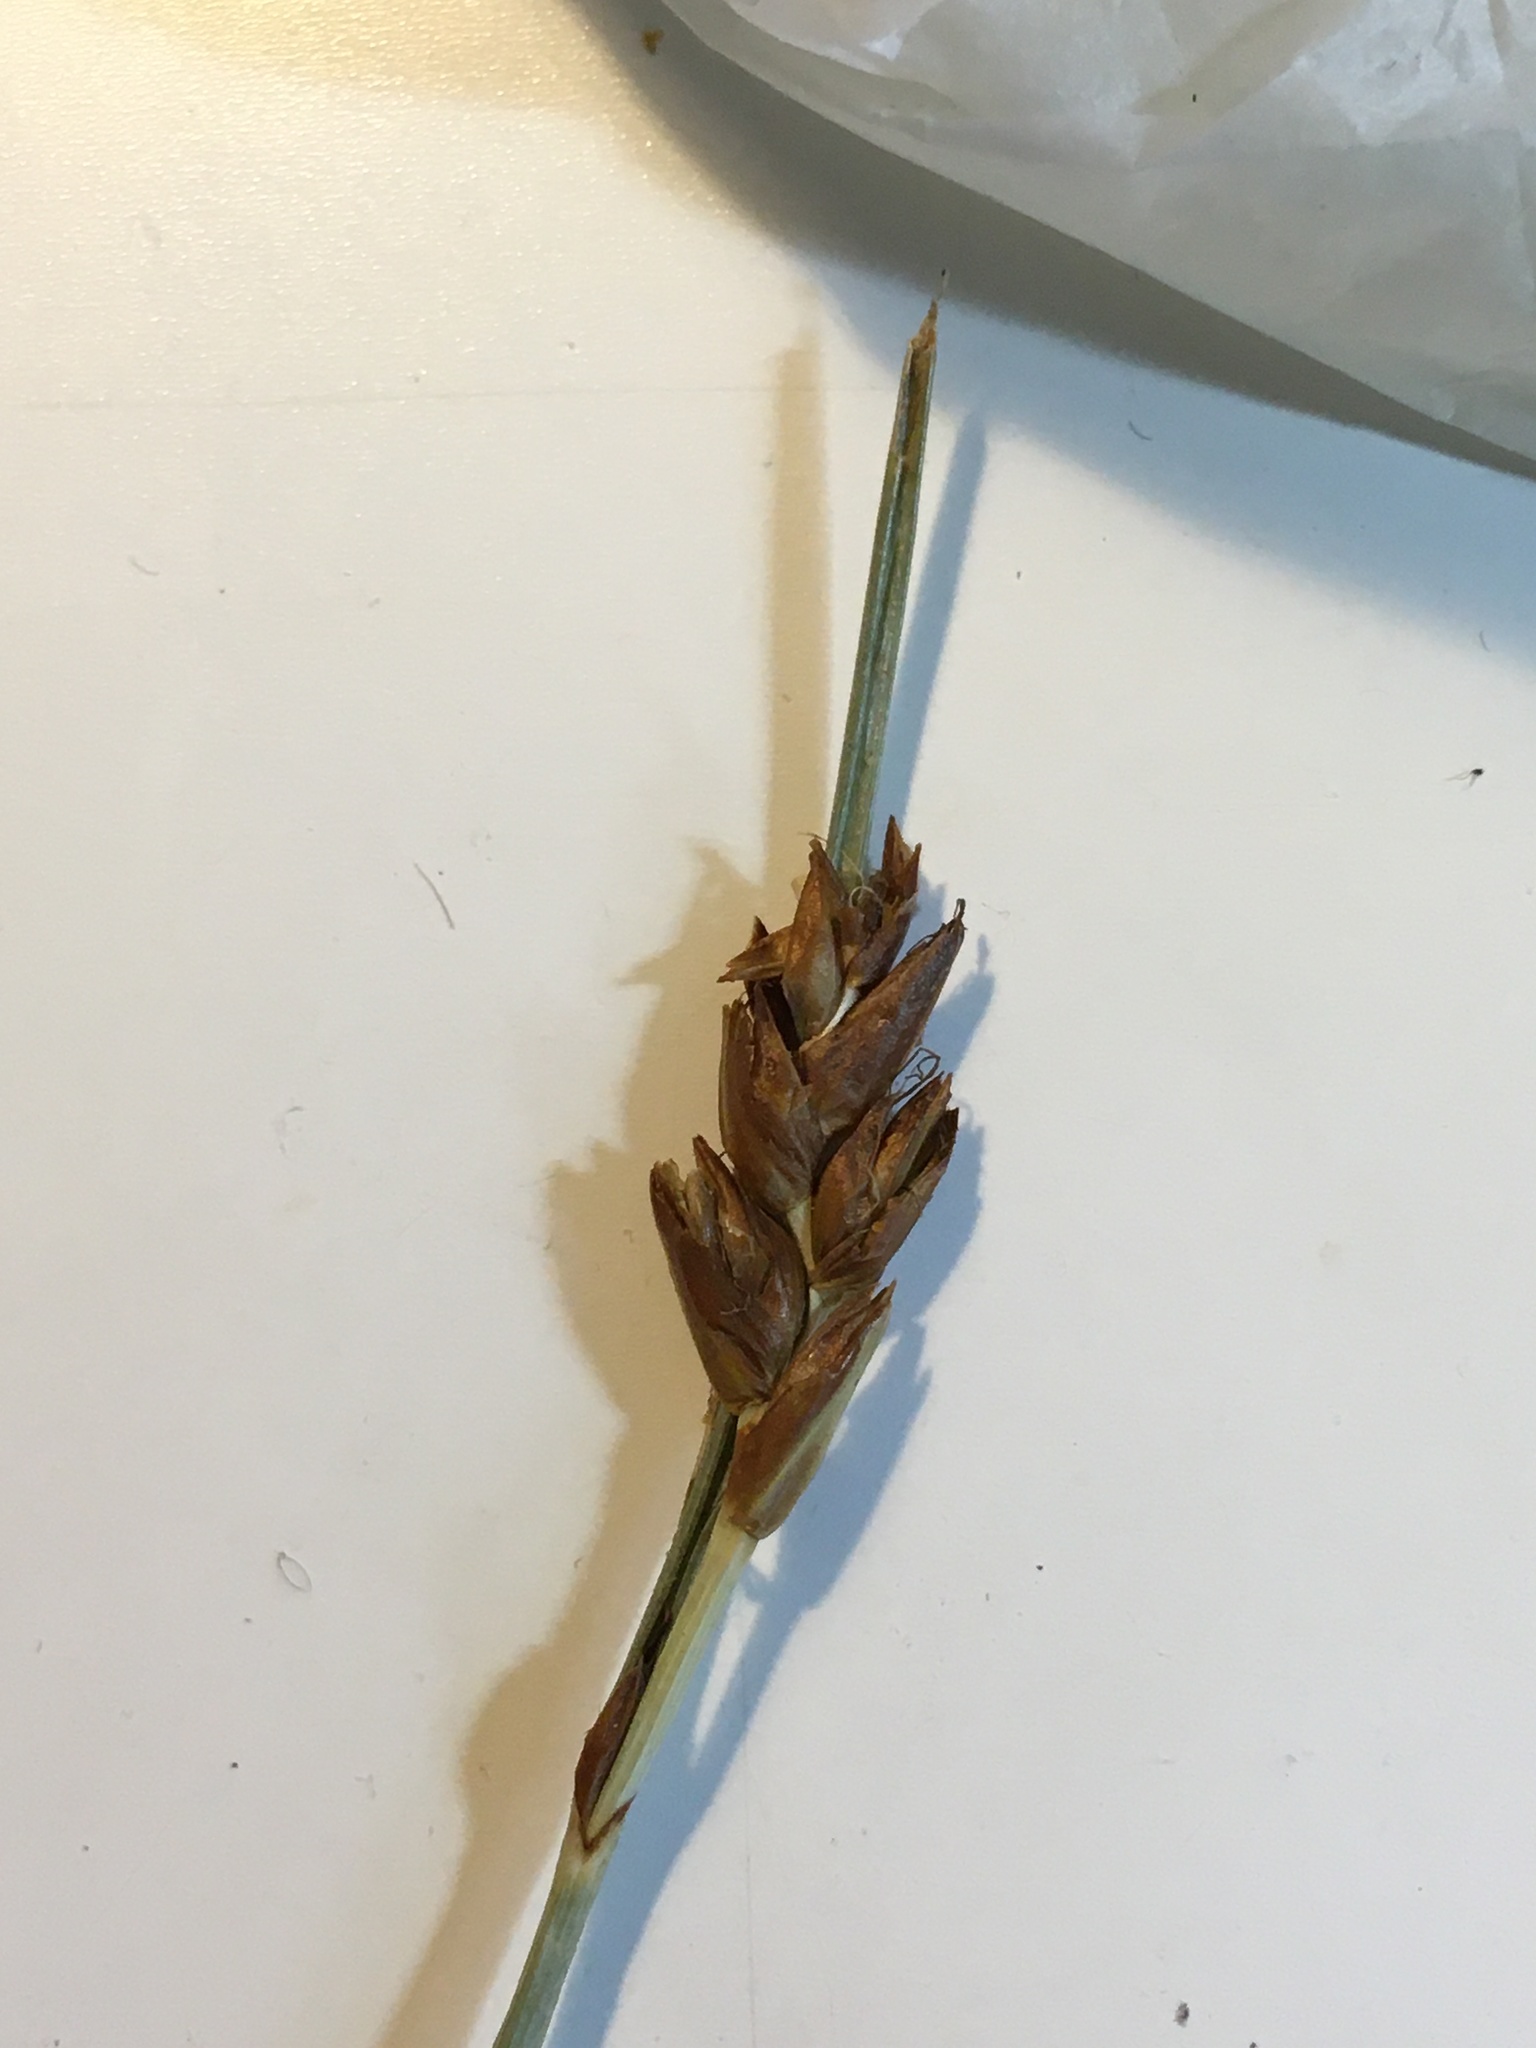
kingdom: Plantae
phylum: Tracheophyta
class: Liliopsida
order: Poales
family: Cyperaceae
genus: Blysmus
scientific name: Blysmus rufus
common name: Saltmarsh flat-sedge
